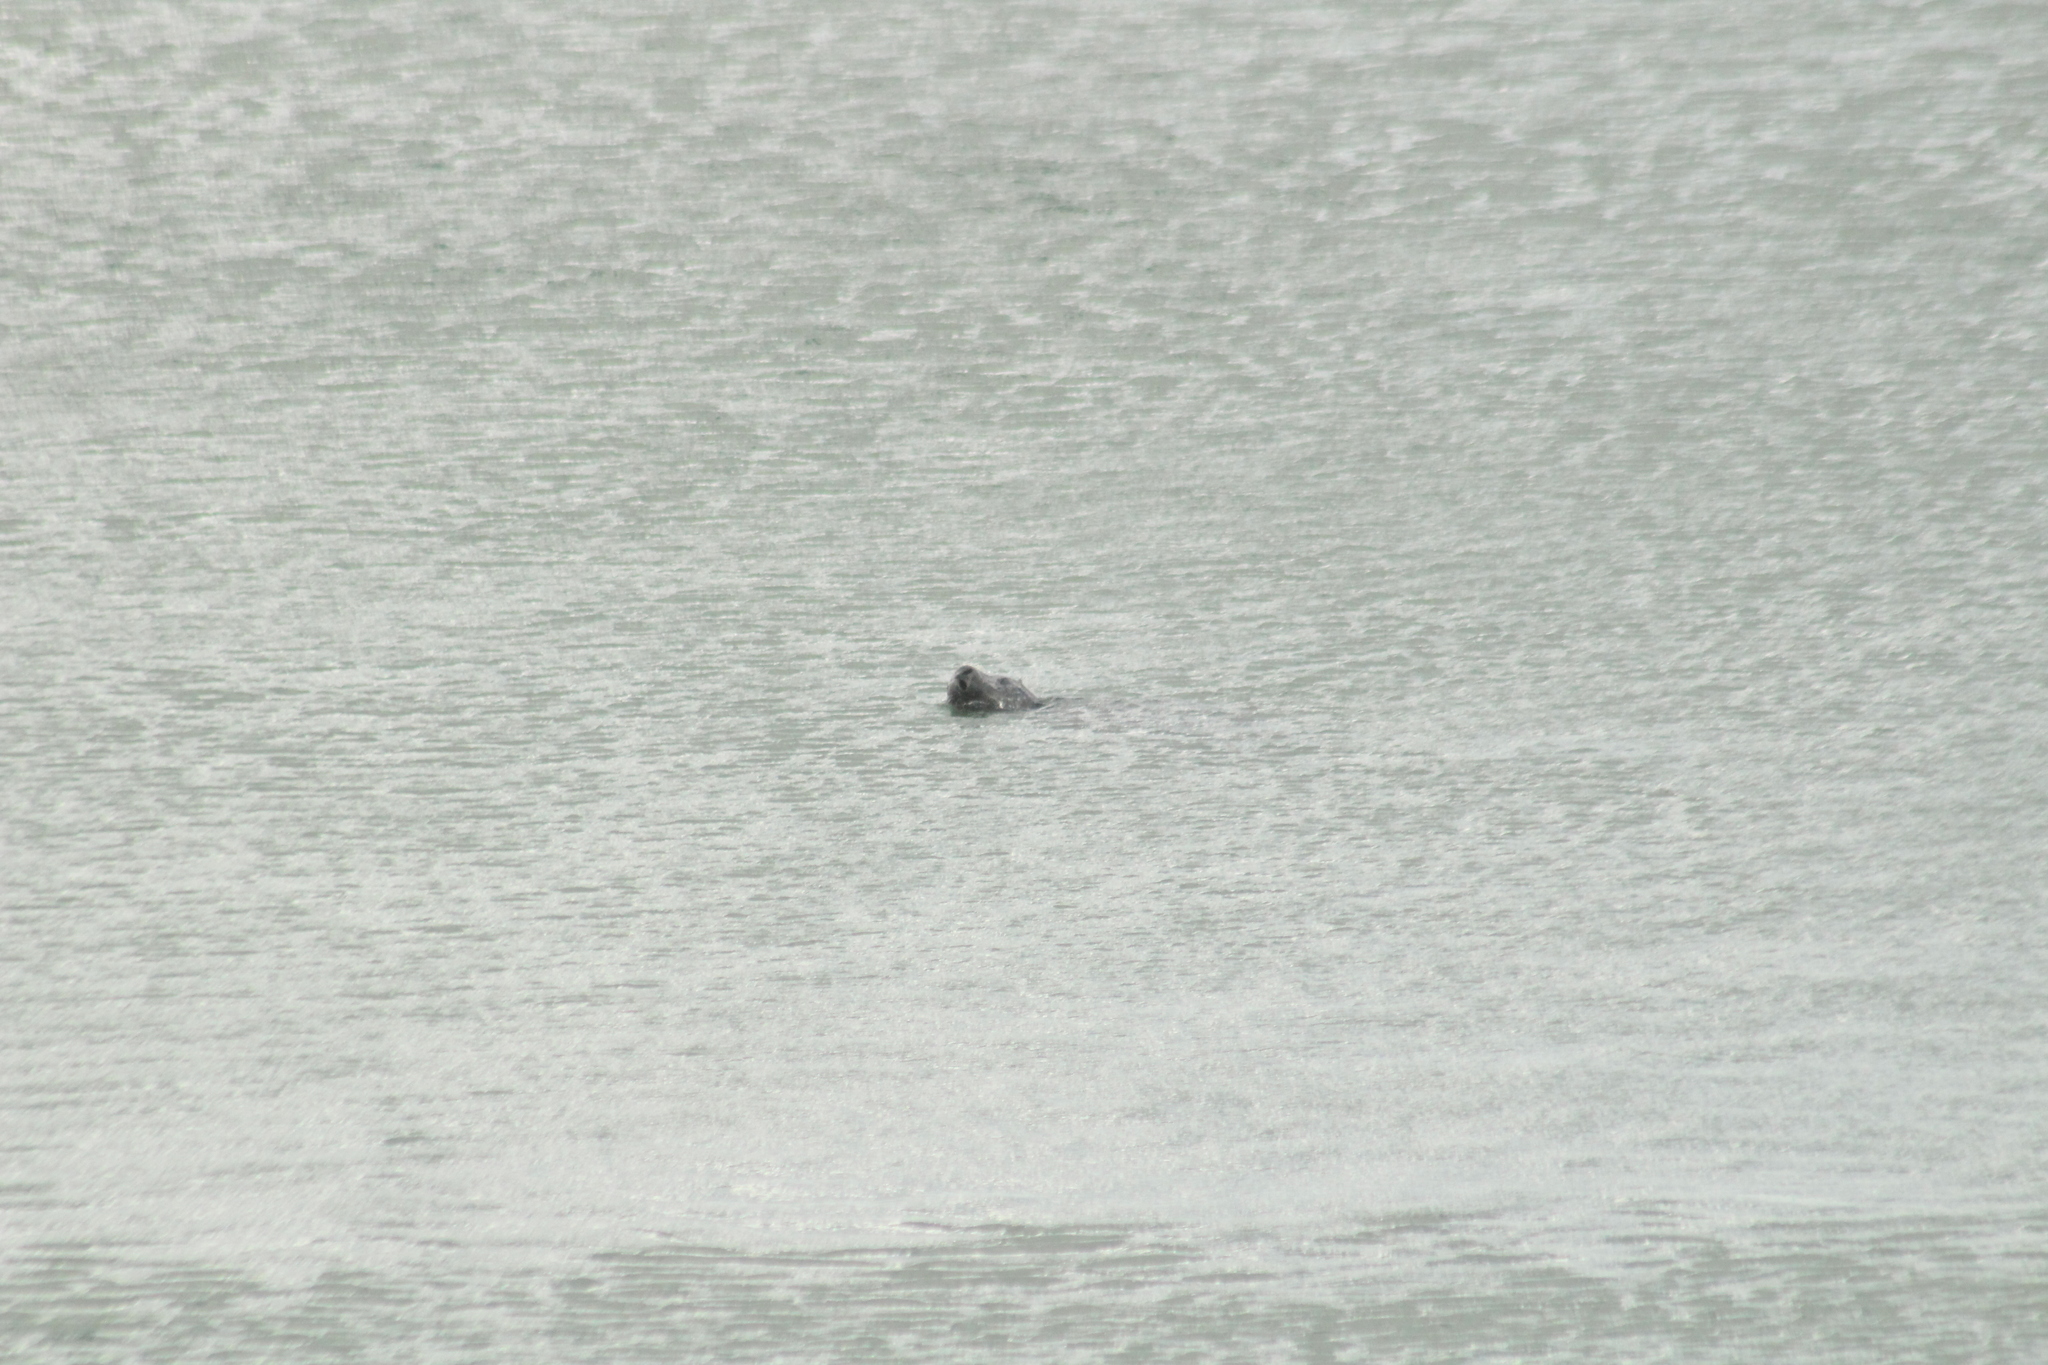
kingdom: Animalia
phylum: Chordata
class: Mammalia
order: Carnivora
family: Phocidae
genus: Phoca
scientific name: Phoca vitulina
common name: Harbor seal
